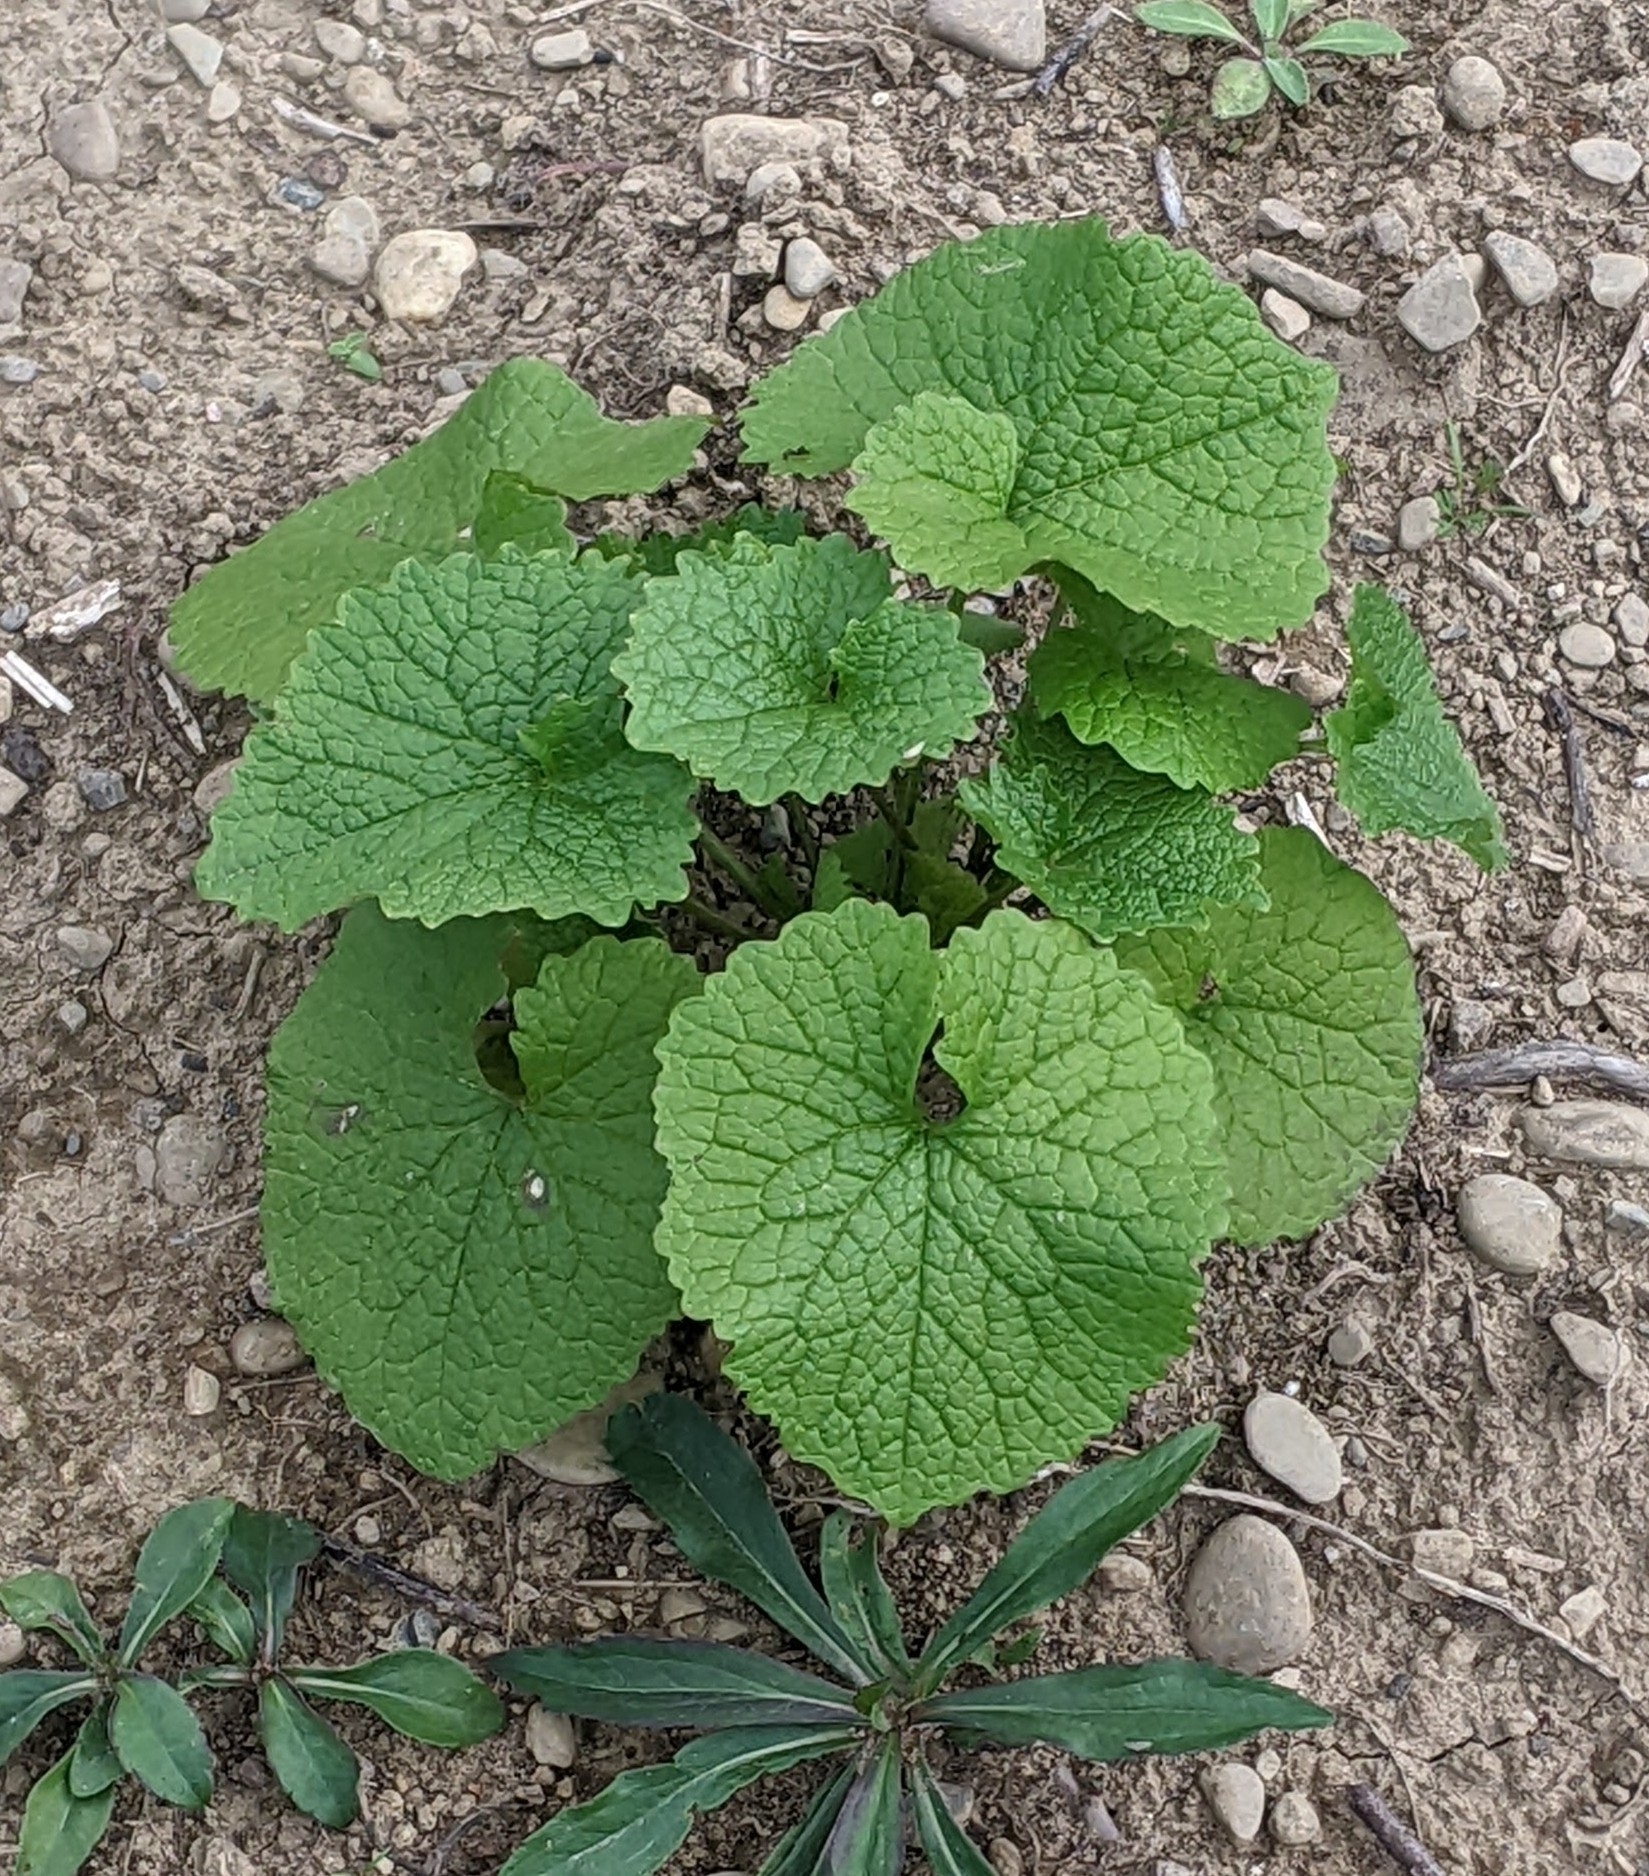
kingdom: Plantae
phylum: Tracheophyta
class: Magnoliopsida
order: Brassicales
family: Brassicaceae
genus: Alliaria
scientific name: Alliaria petiolata
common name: Garlic mustard
